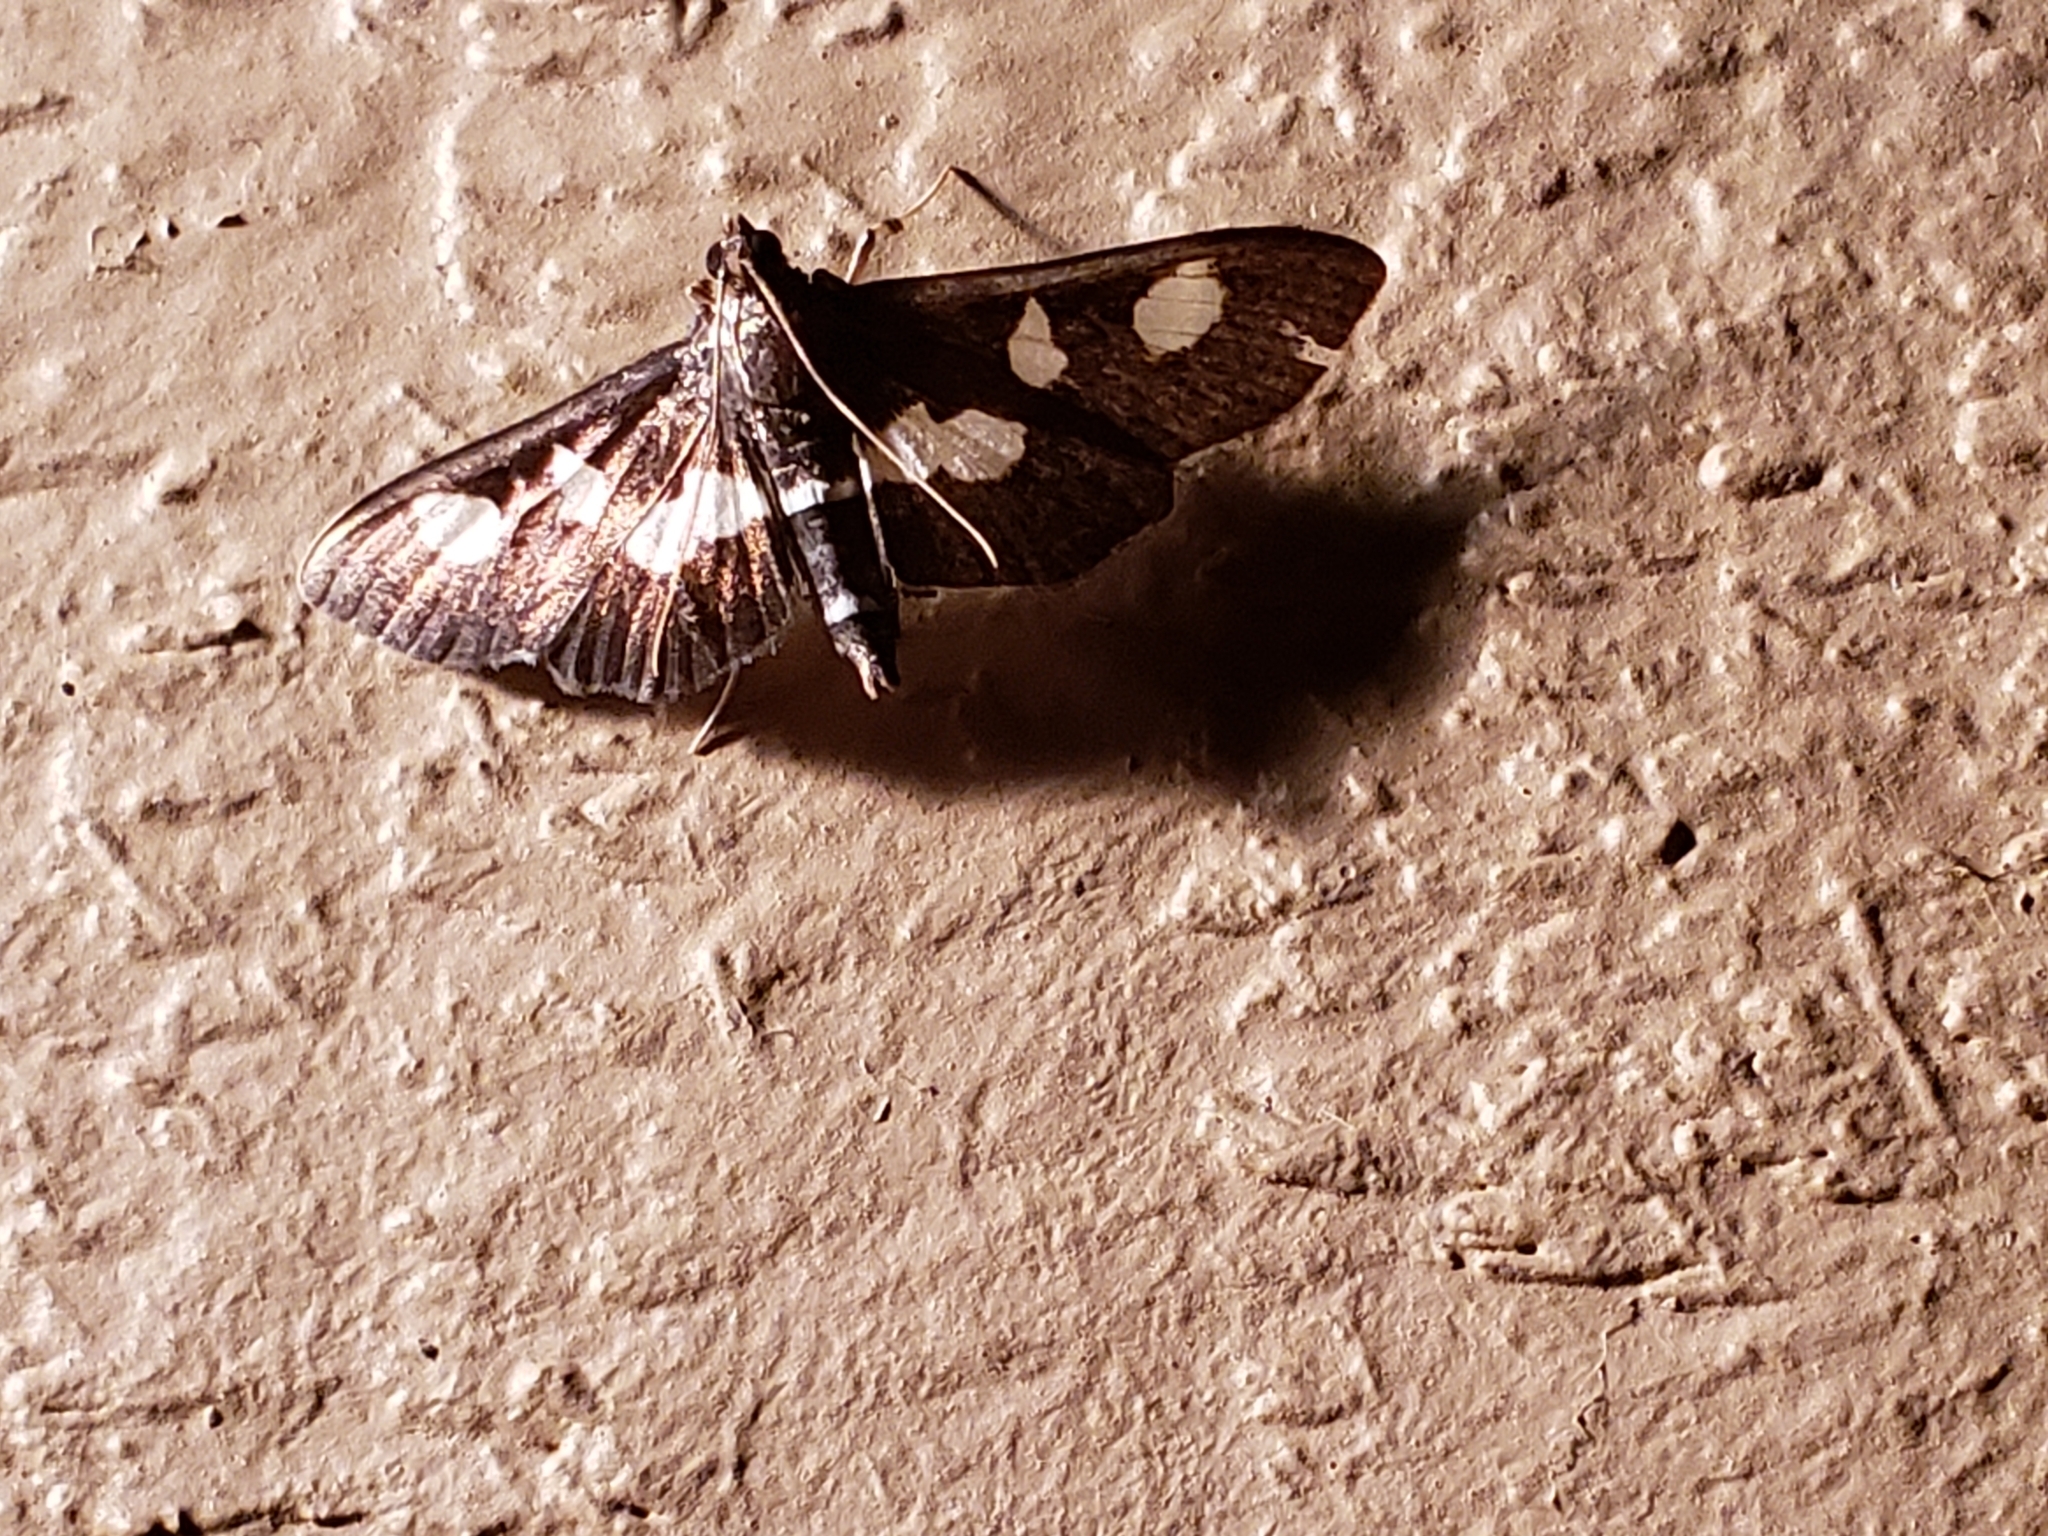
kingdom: Animalia
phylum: Arthropoda
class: Insecta
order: Lepidoptera
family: Crambidae
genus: Desmia
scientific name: Desmia
